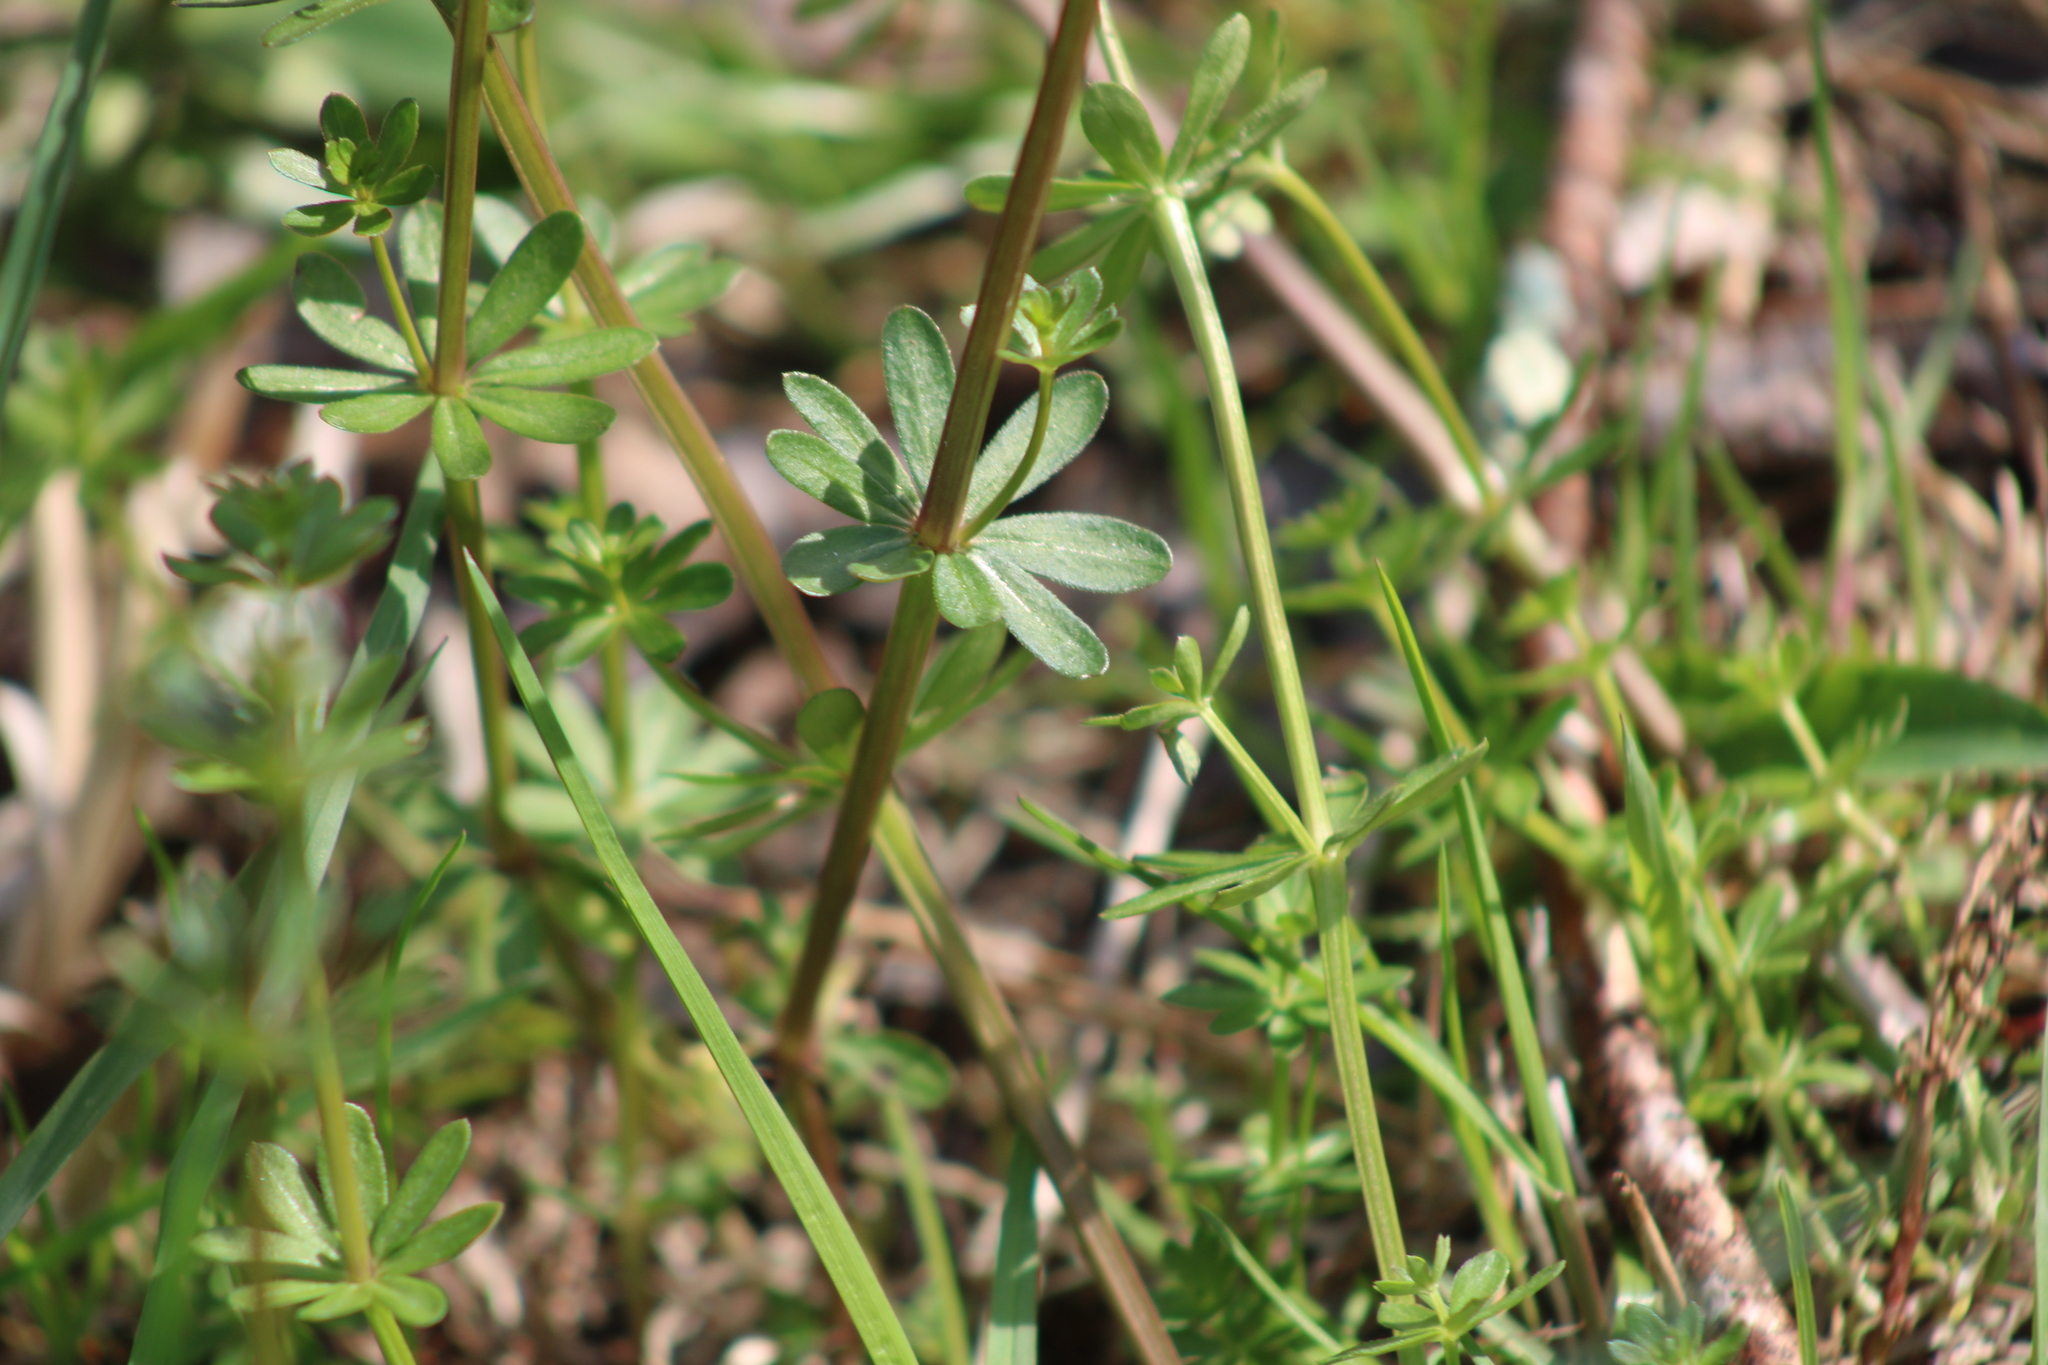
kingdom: Plantae
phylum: Tracheophyta
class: Magnoliopsida
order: Gentianales
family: Rubiaceae
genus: Galium
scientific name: Galium mollugo
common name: Hedge bedstraw
